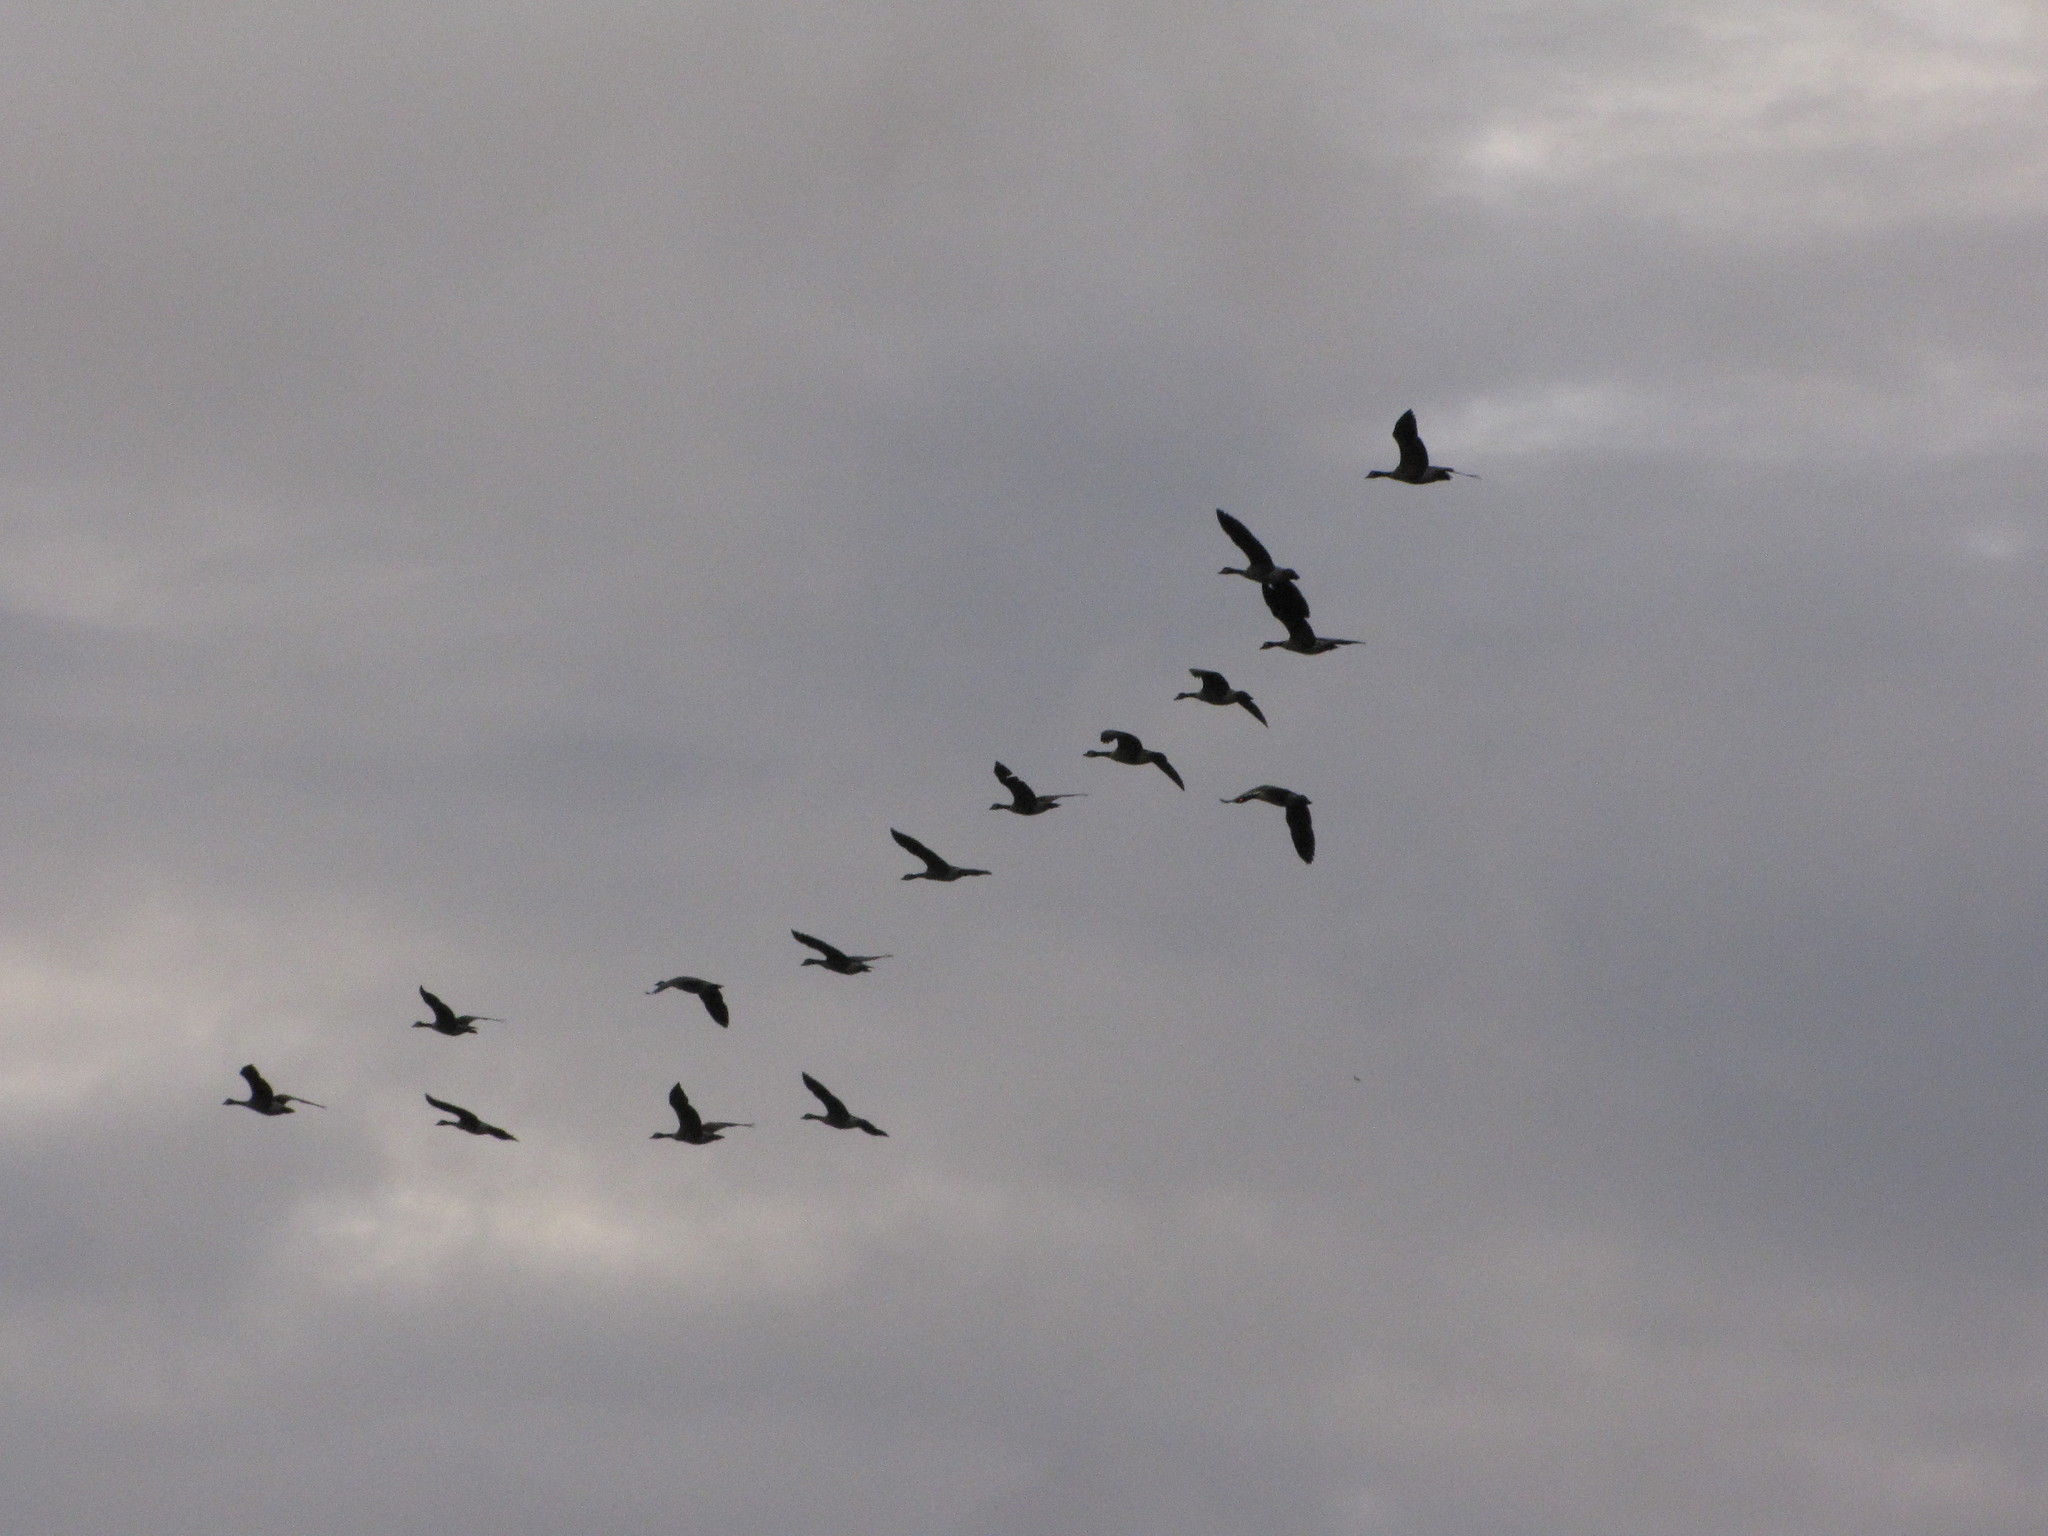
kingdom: Animalia
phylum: Chordata
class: Aves
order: Anseriformes
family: Anatidae
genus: Branta
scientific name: Branta canadensis
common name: Canada goose
